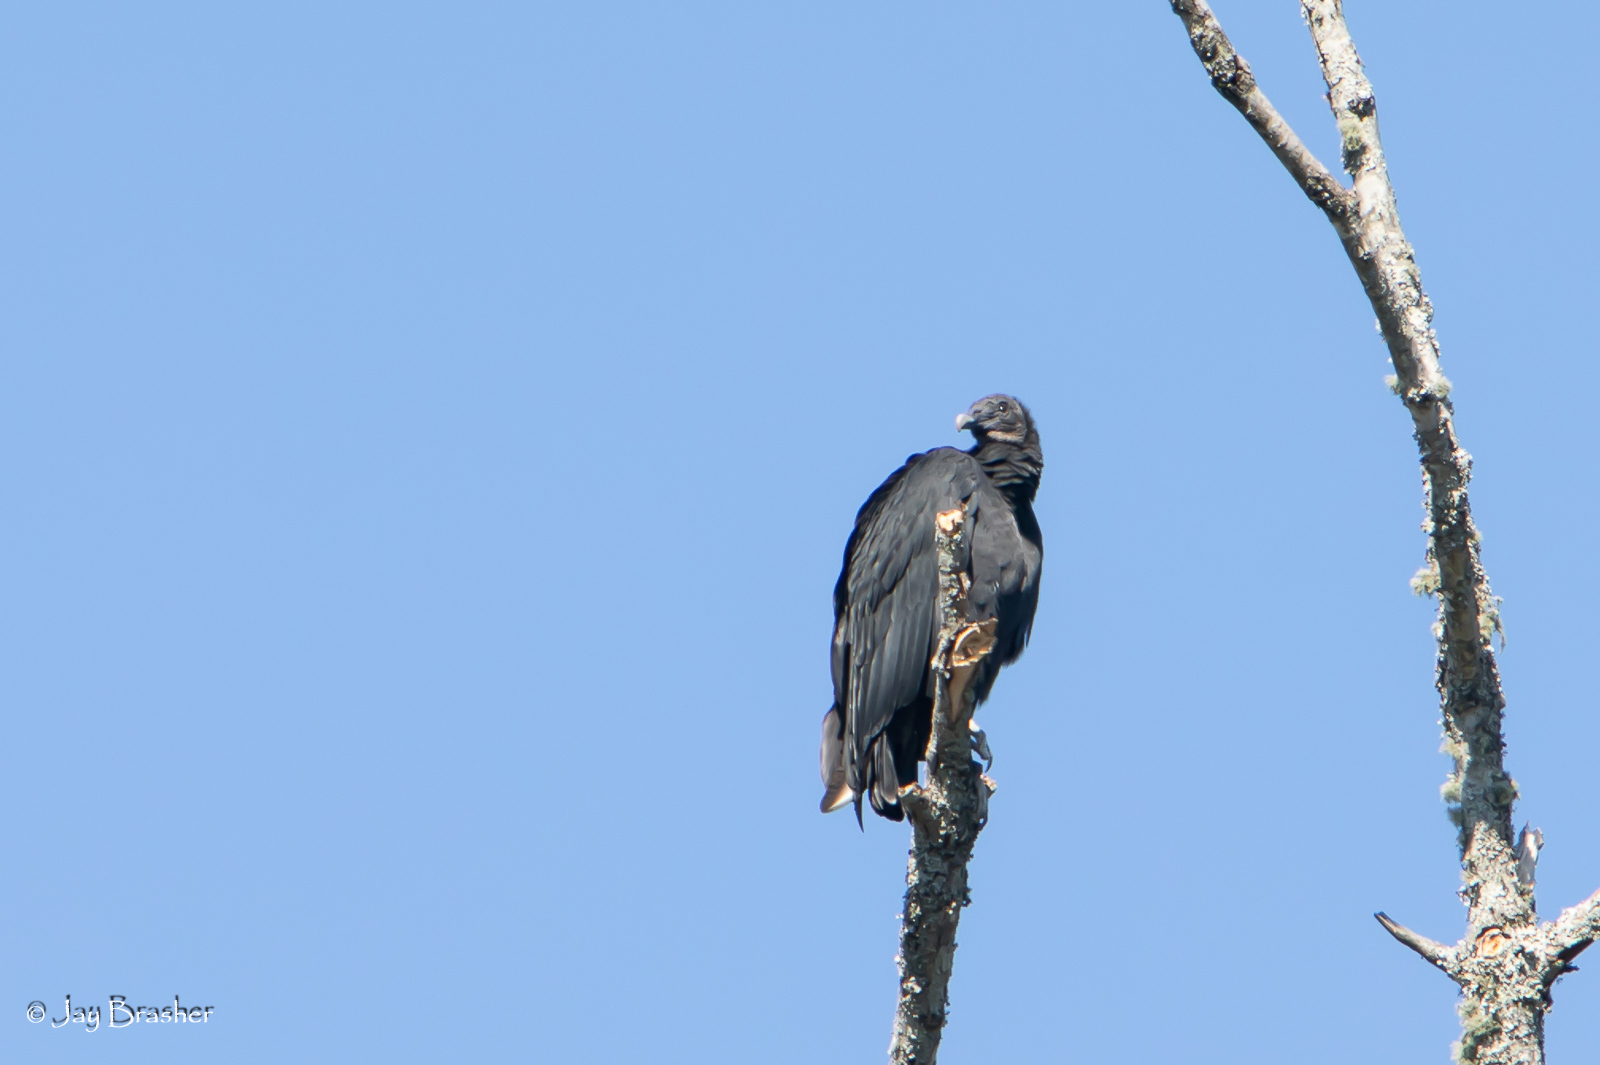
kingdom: Animalia
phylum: Chordata
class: Aves
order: Accipitriformes
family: Cathartidae
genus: Coragyps
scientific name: Coragyps atratus
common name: Black vulture
